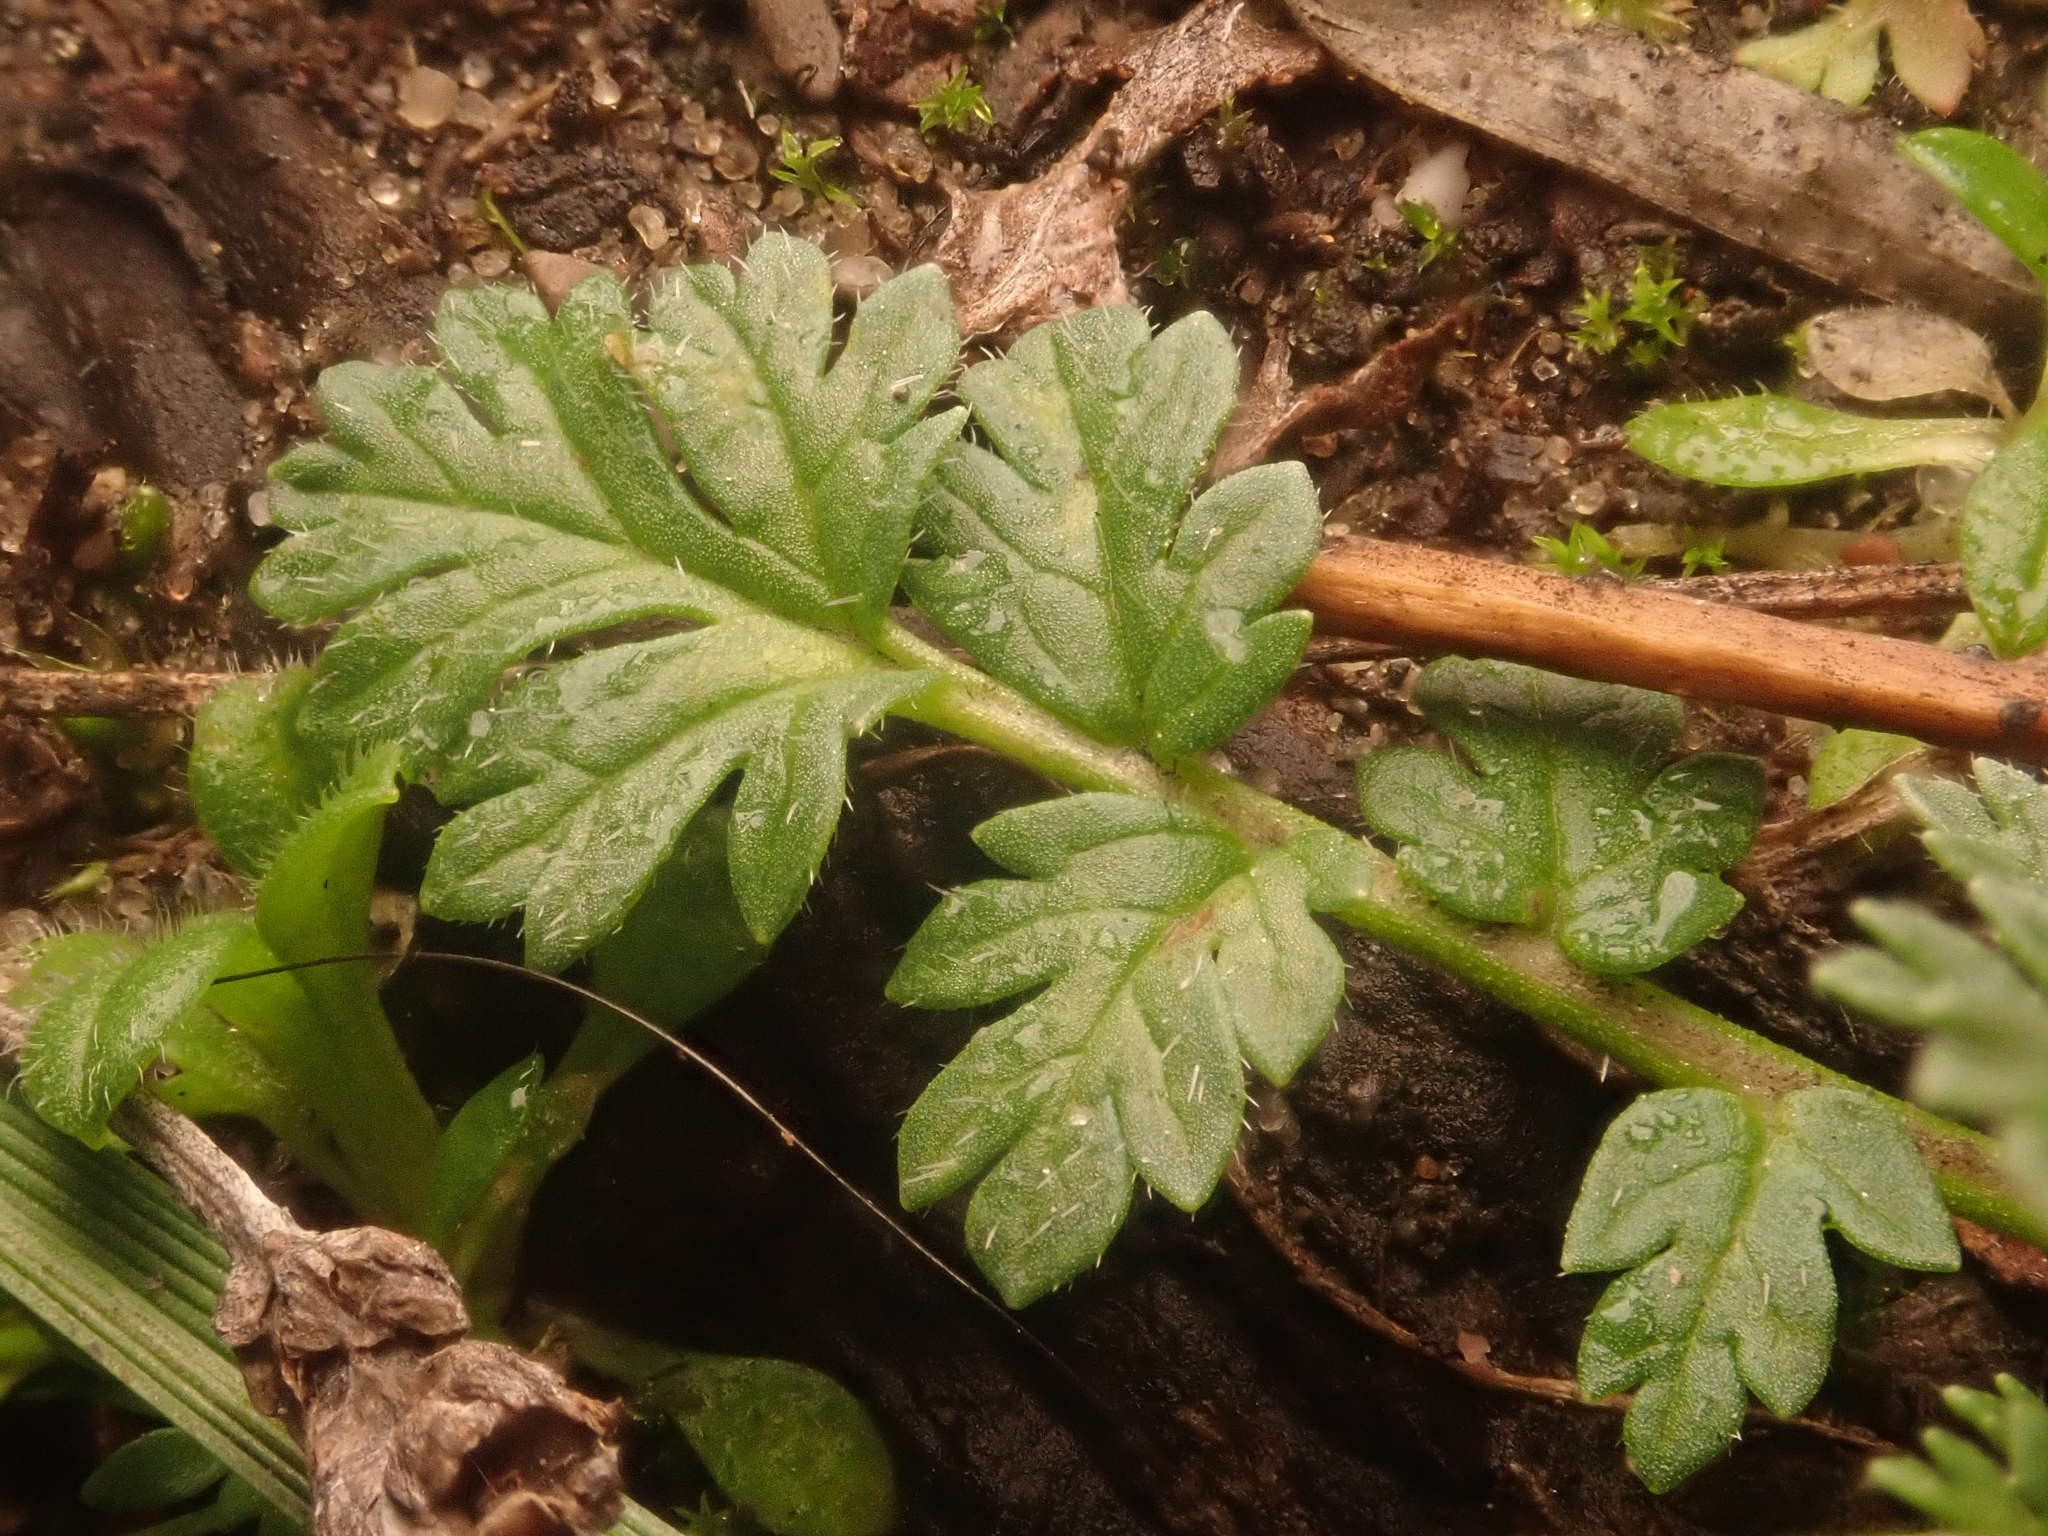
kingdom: Plantae
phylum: Tracheophyta
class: Magnoliopsida
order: Geraniales
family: Geraniaceae
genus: Erodium
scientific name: Erodium cicutarium
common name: Common stork's-bill
